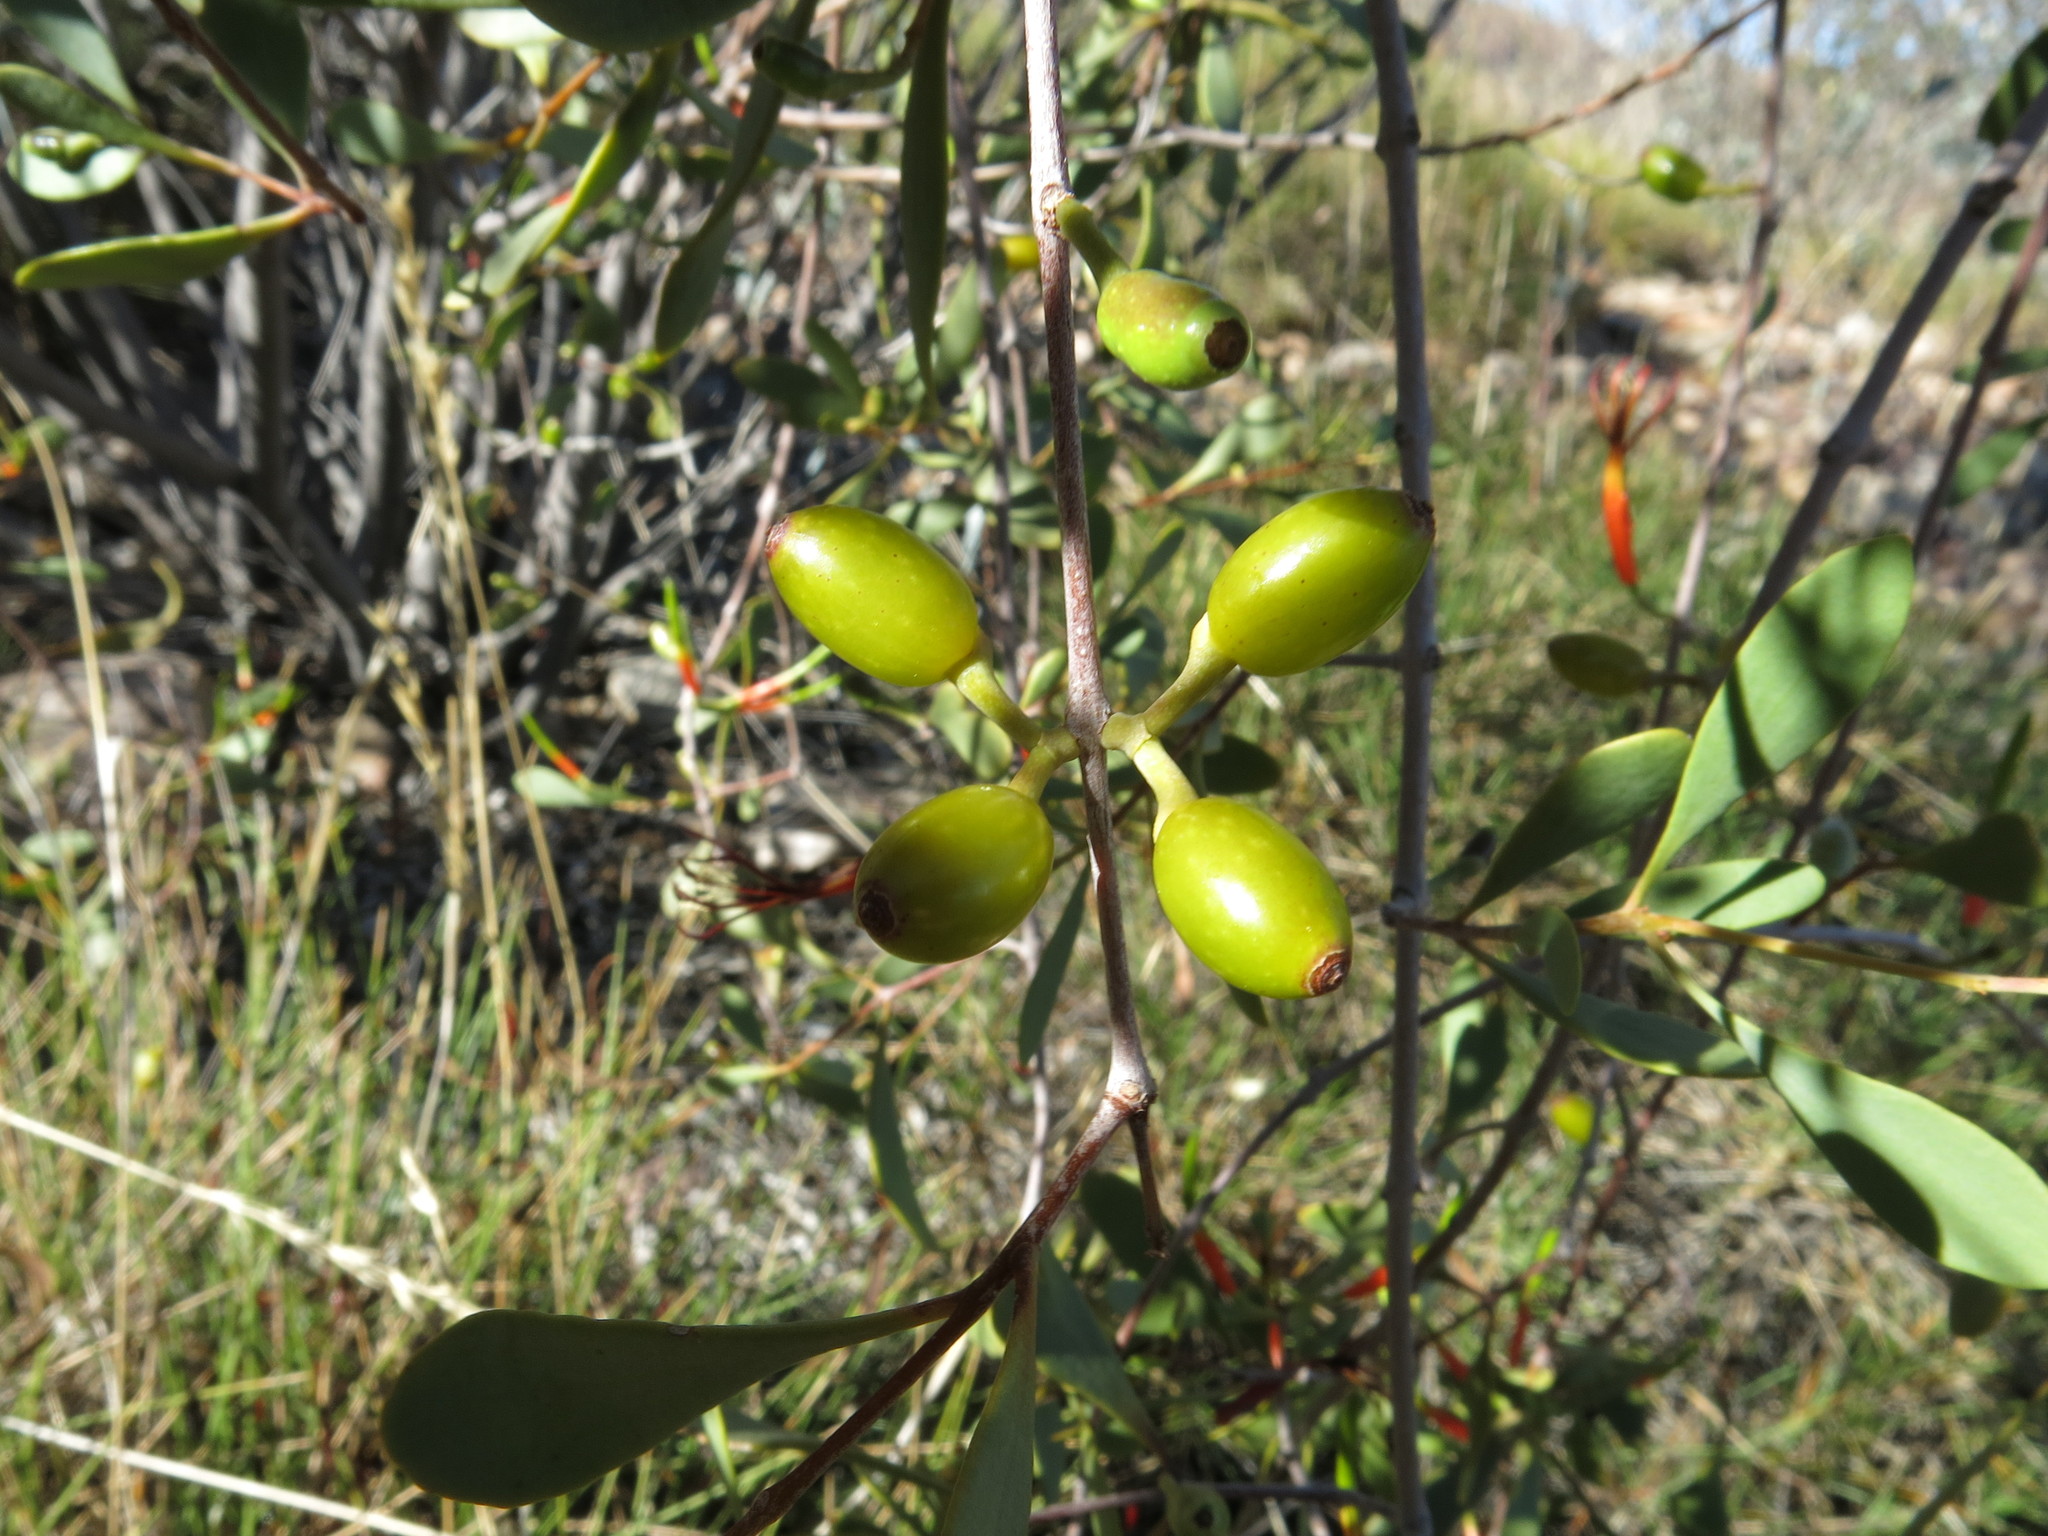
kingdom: Plantae
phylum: Tracheophyta
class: Magnoliopsida
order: Santalales
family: Loranthaceae
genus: Lysiana
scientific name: Lysiana spathulata
